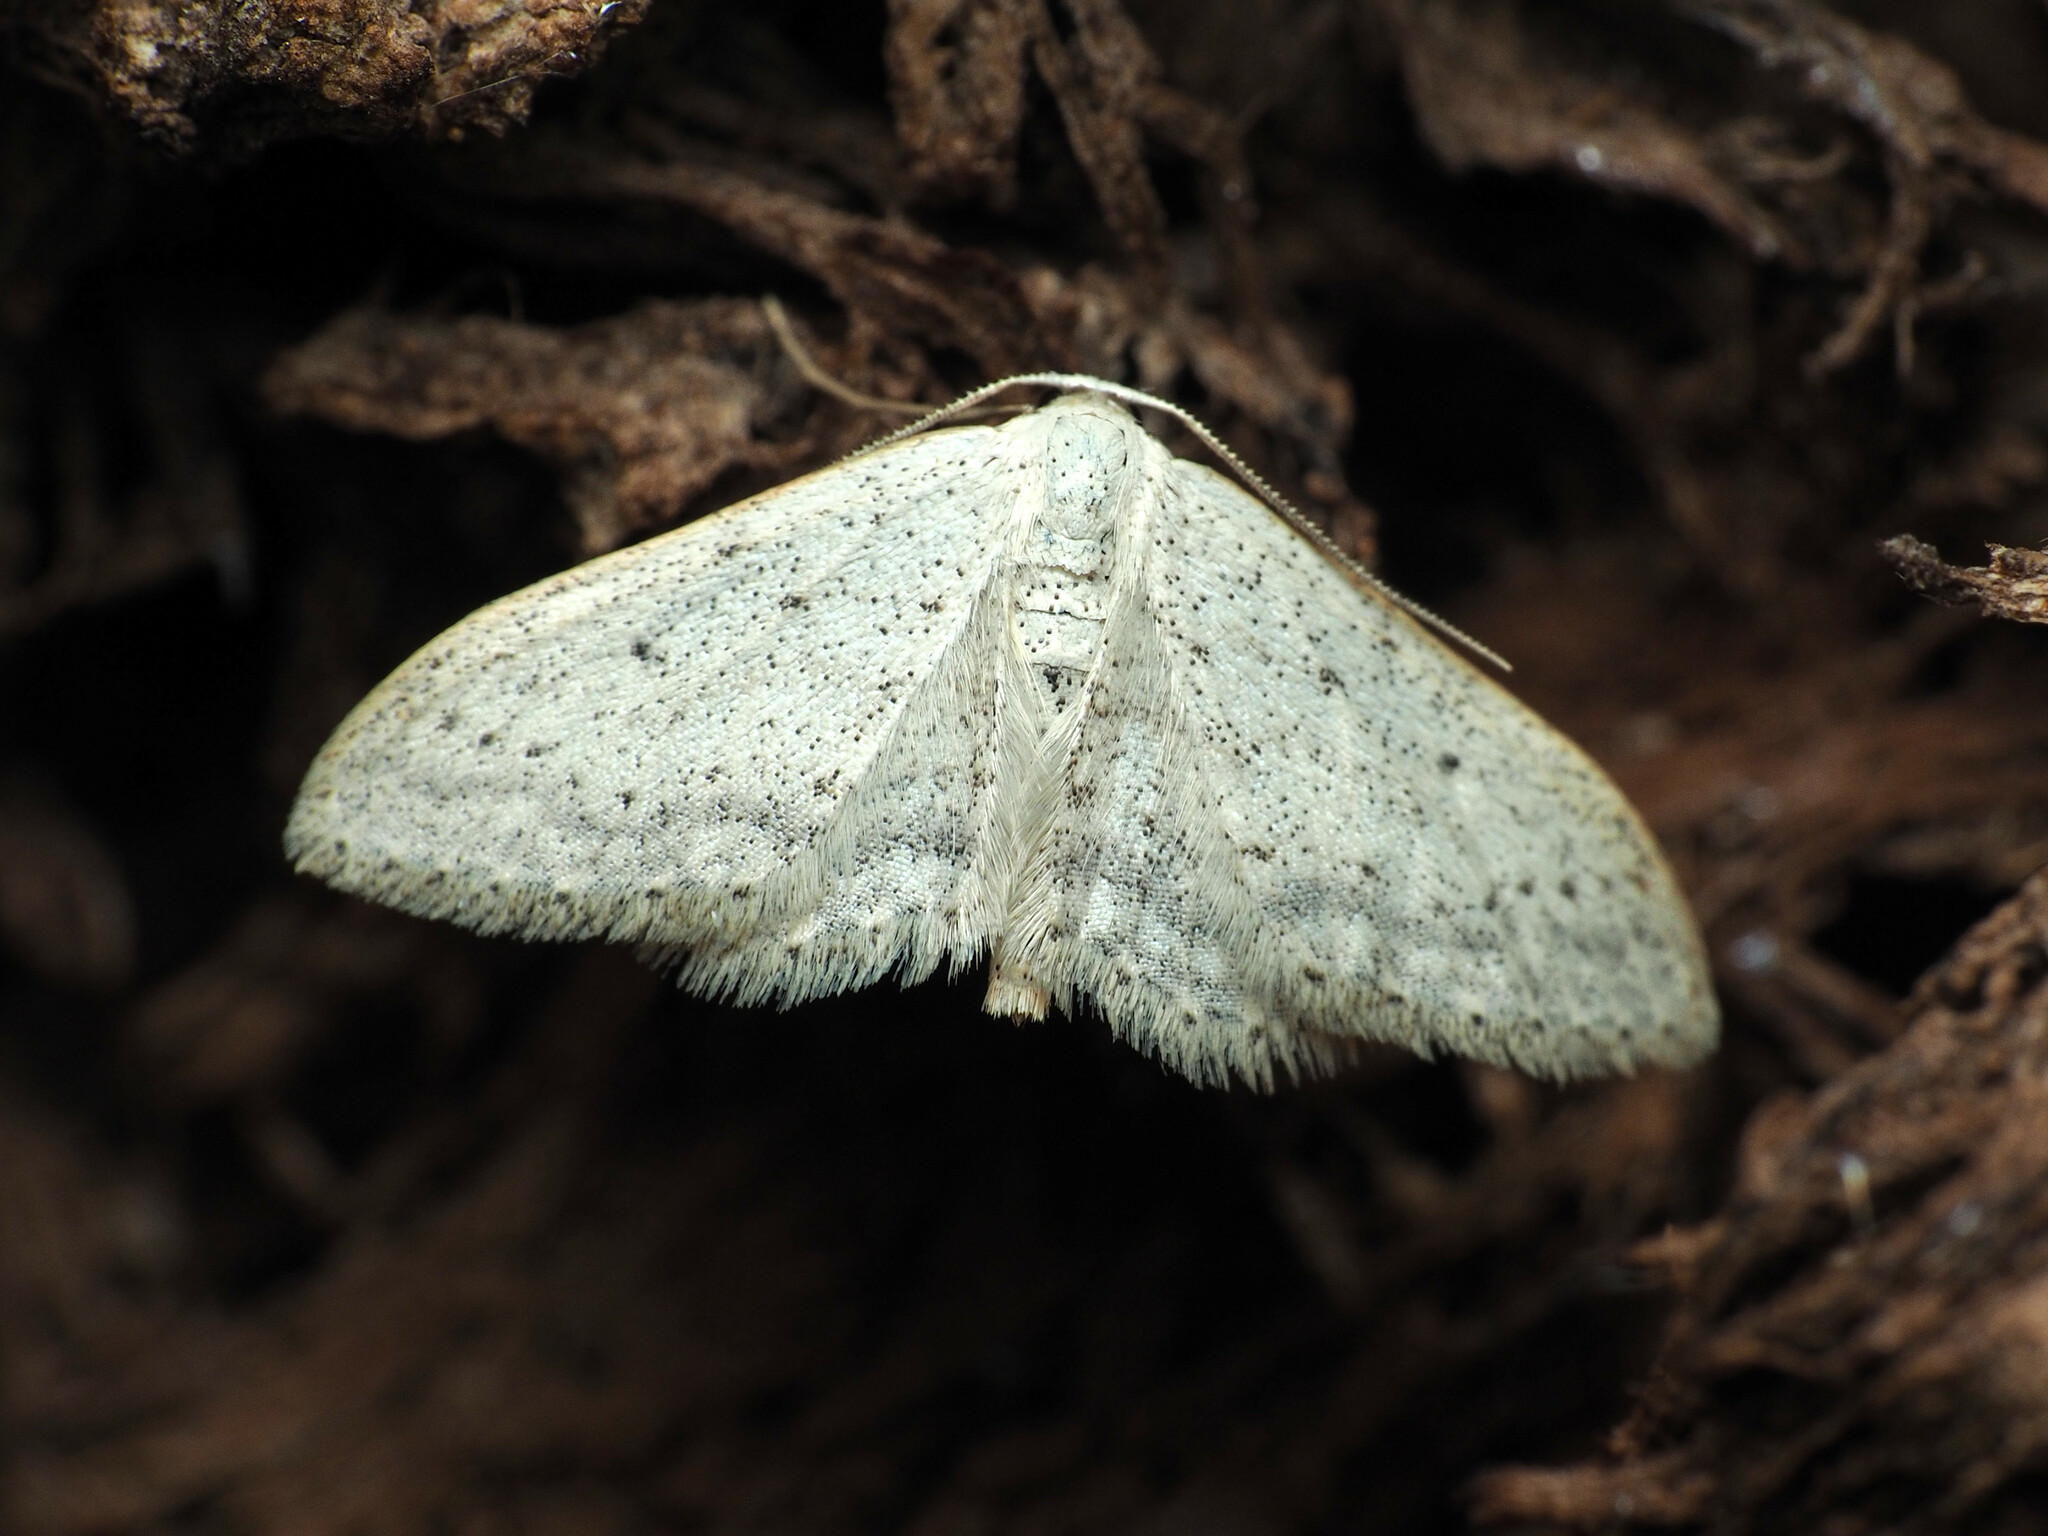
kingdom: Animalia
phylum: Arthropoda
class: Insecta
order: Lepidoptera
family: Geometridae
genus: Idaea
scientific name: Idaea seriata
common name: Small dusty wave
